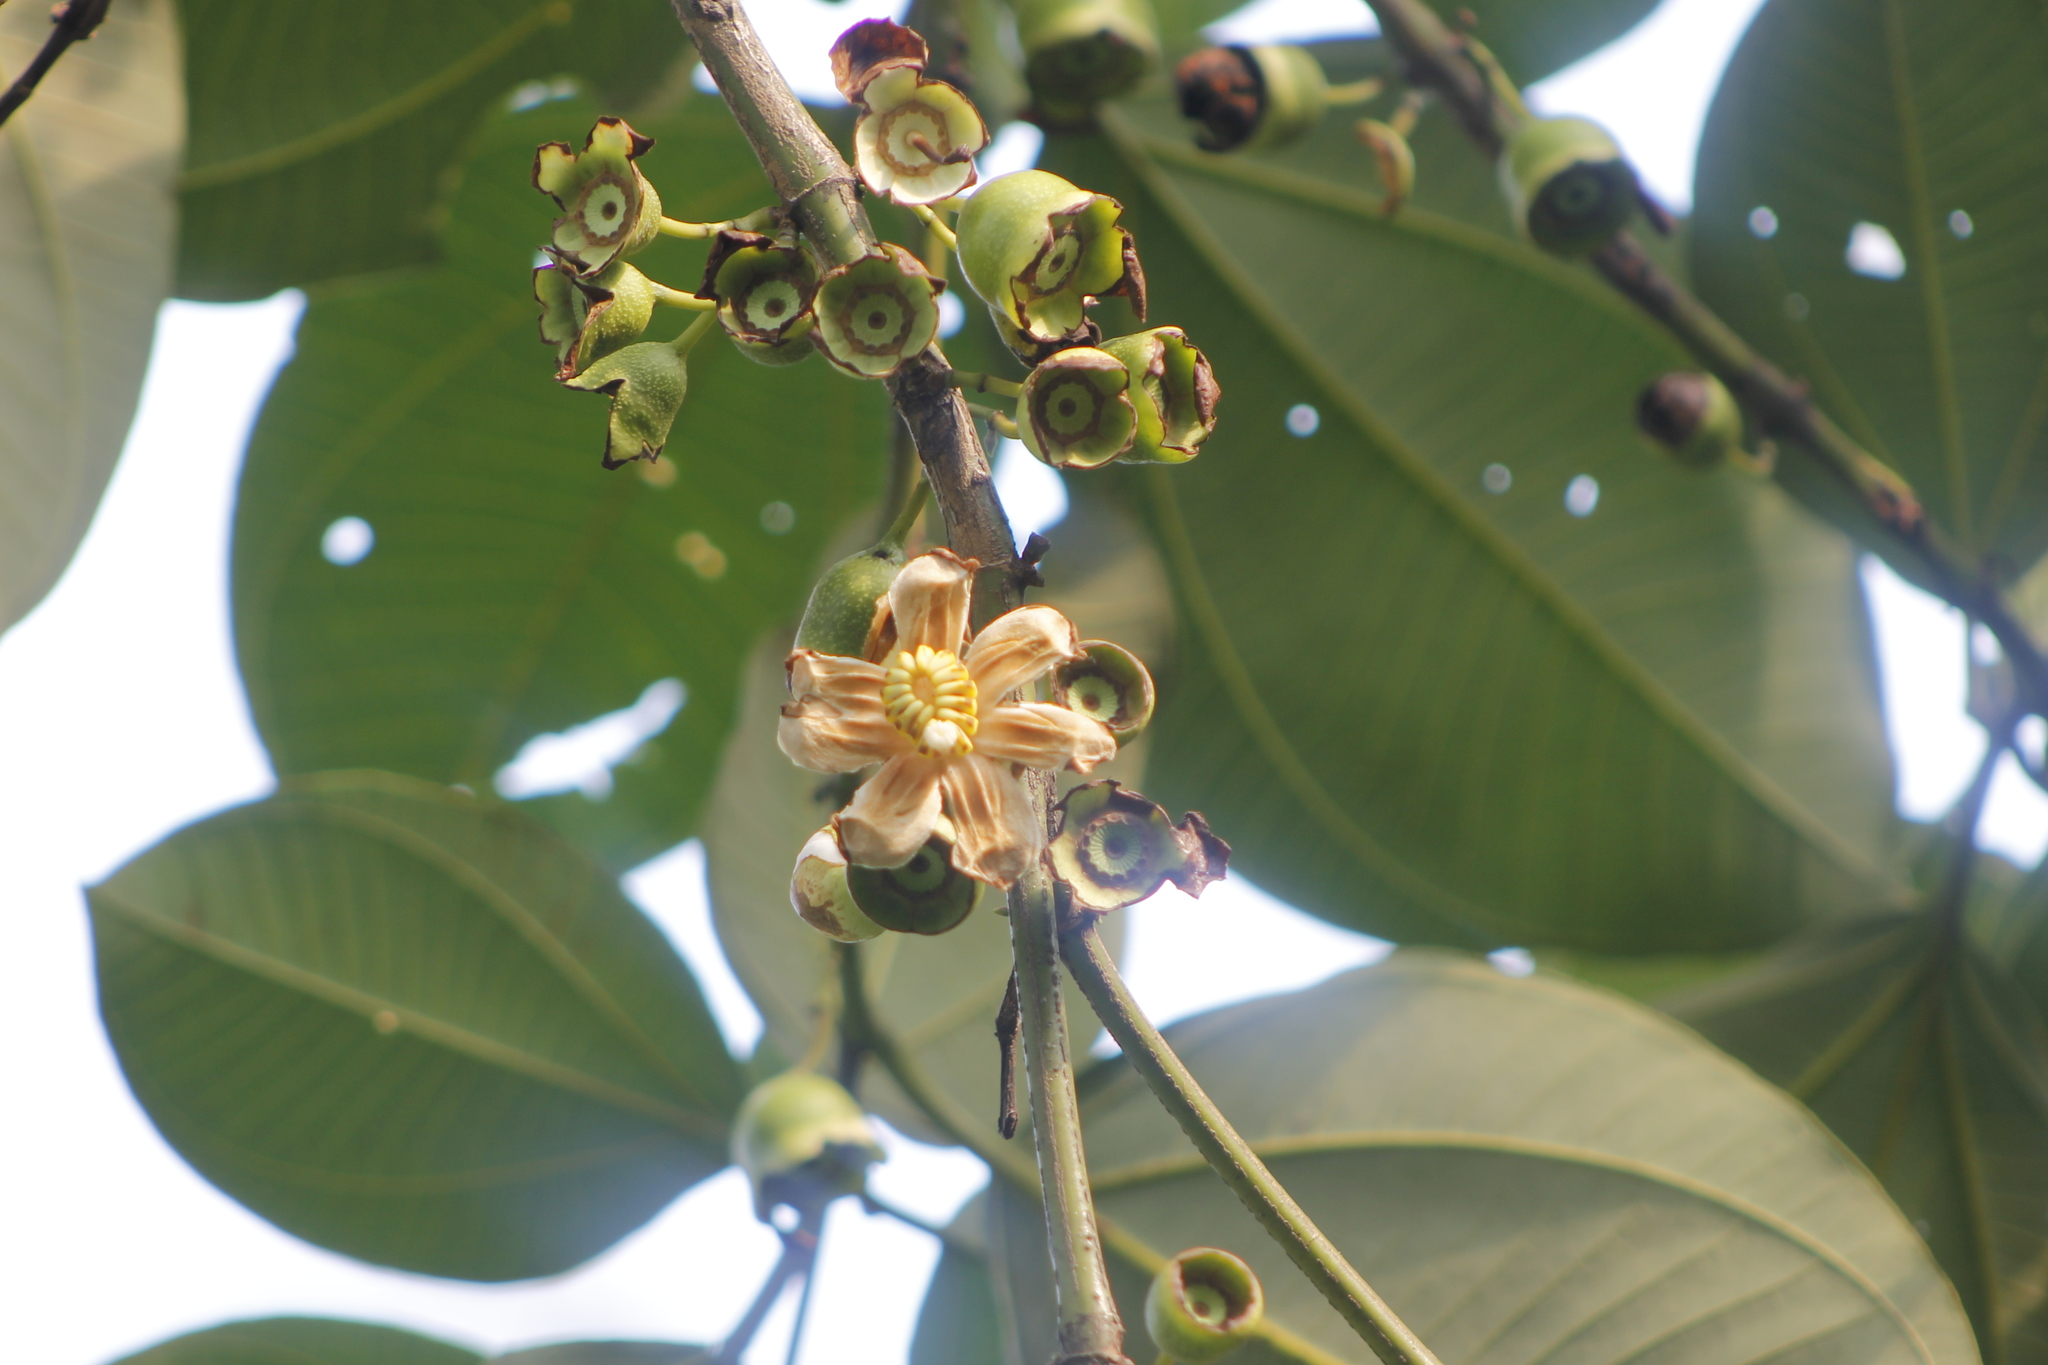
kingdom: Plantae
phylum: Tracheophyta
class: Magnoliopsida
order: Myrtales
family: Melastomataceae
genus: Bellucia
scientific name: Bellucia grossularioides
